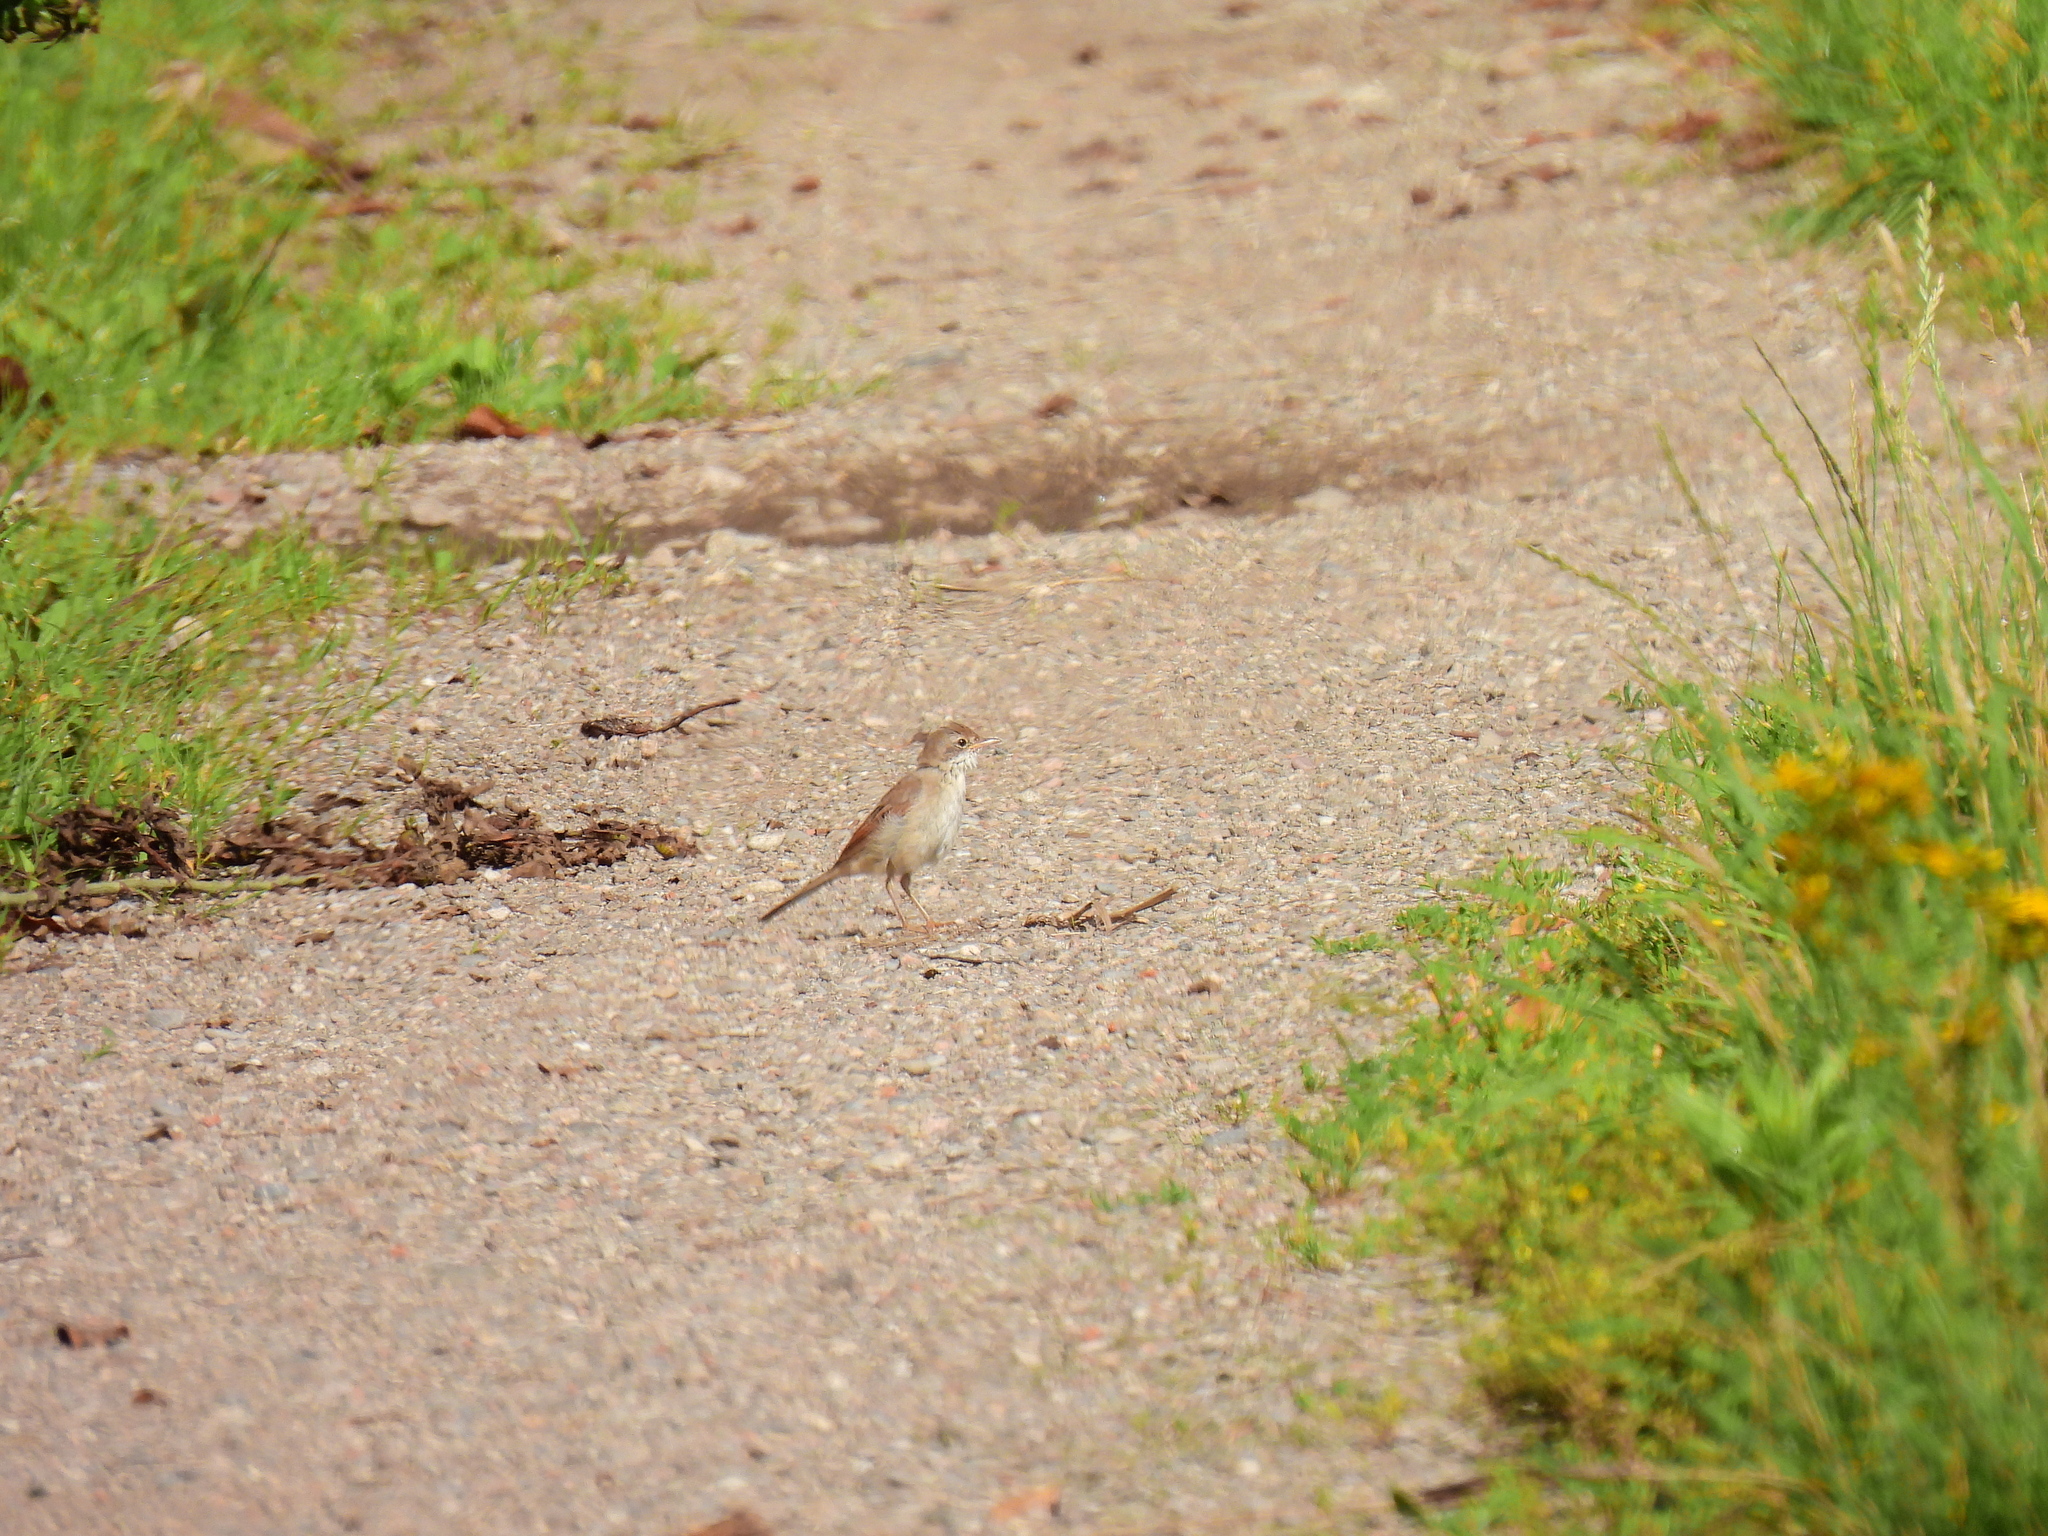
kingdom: Animalia
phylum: Chordata
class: Aves
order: Passeriformes
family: Sylviidae
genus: Sylvia
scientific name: Sylvia communis
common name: Common whitethroat
